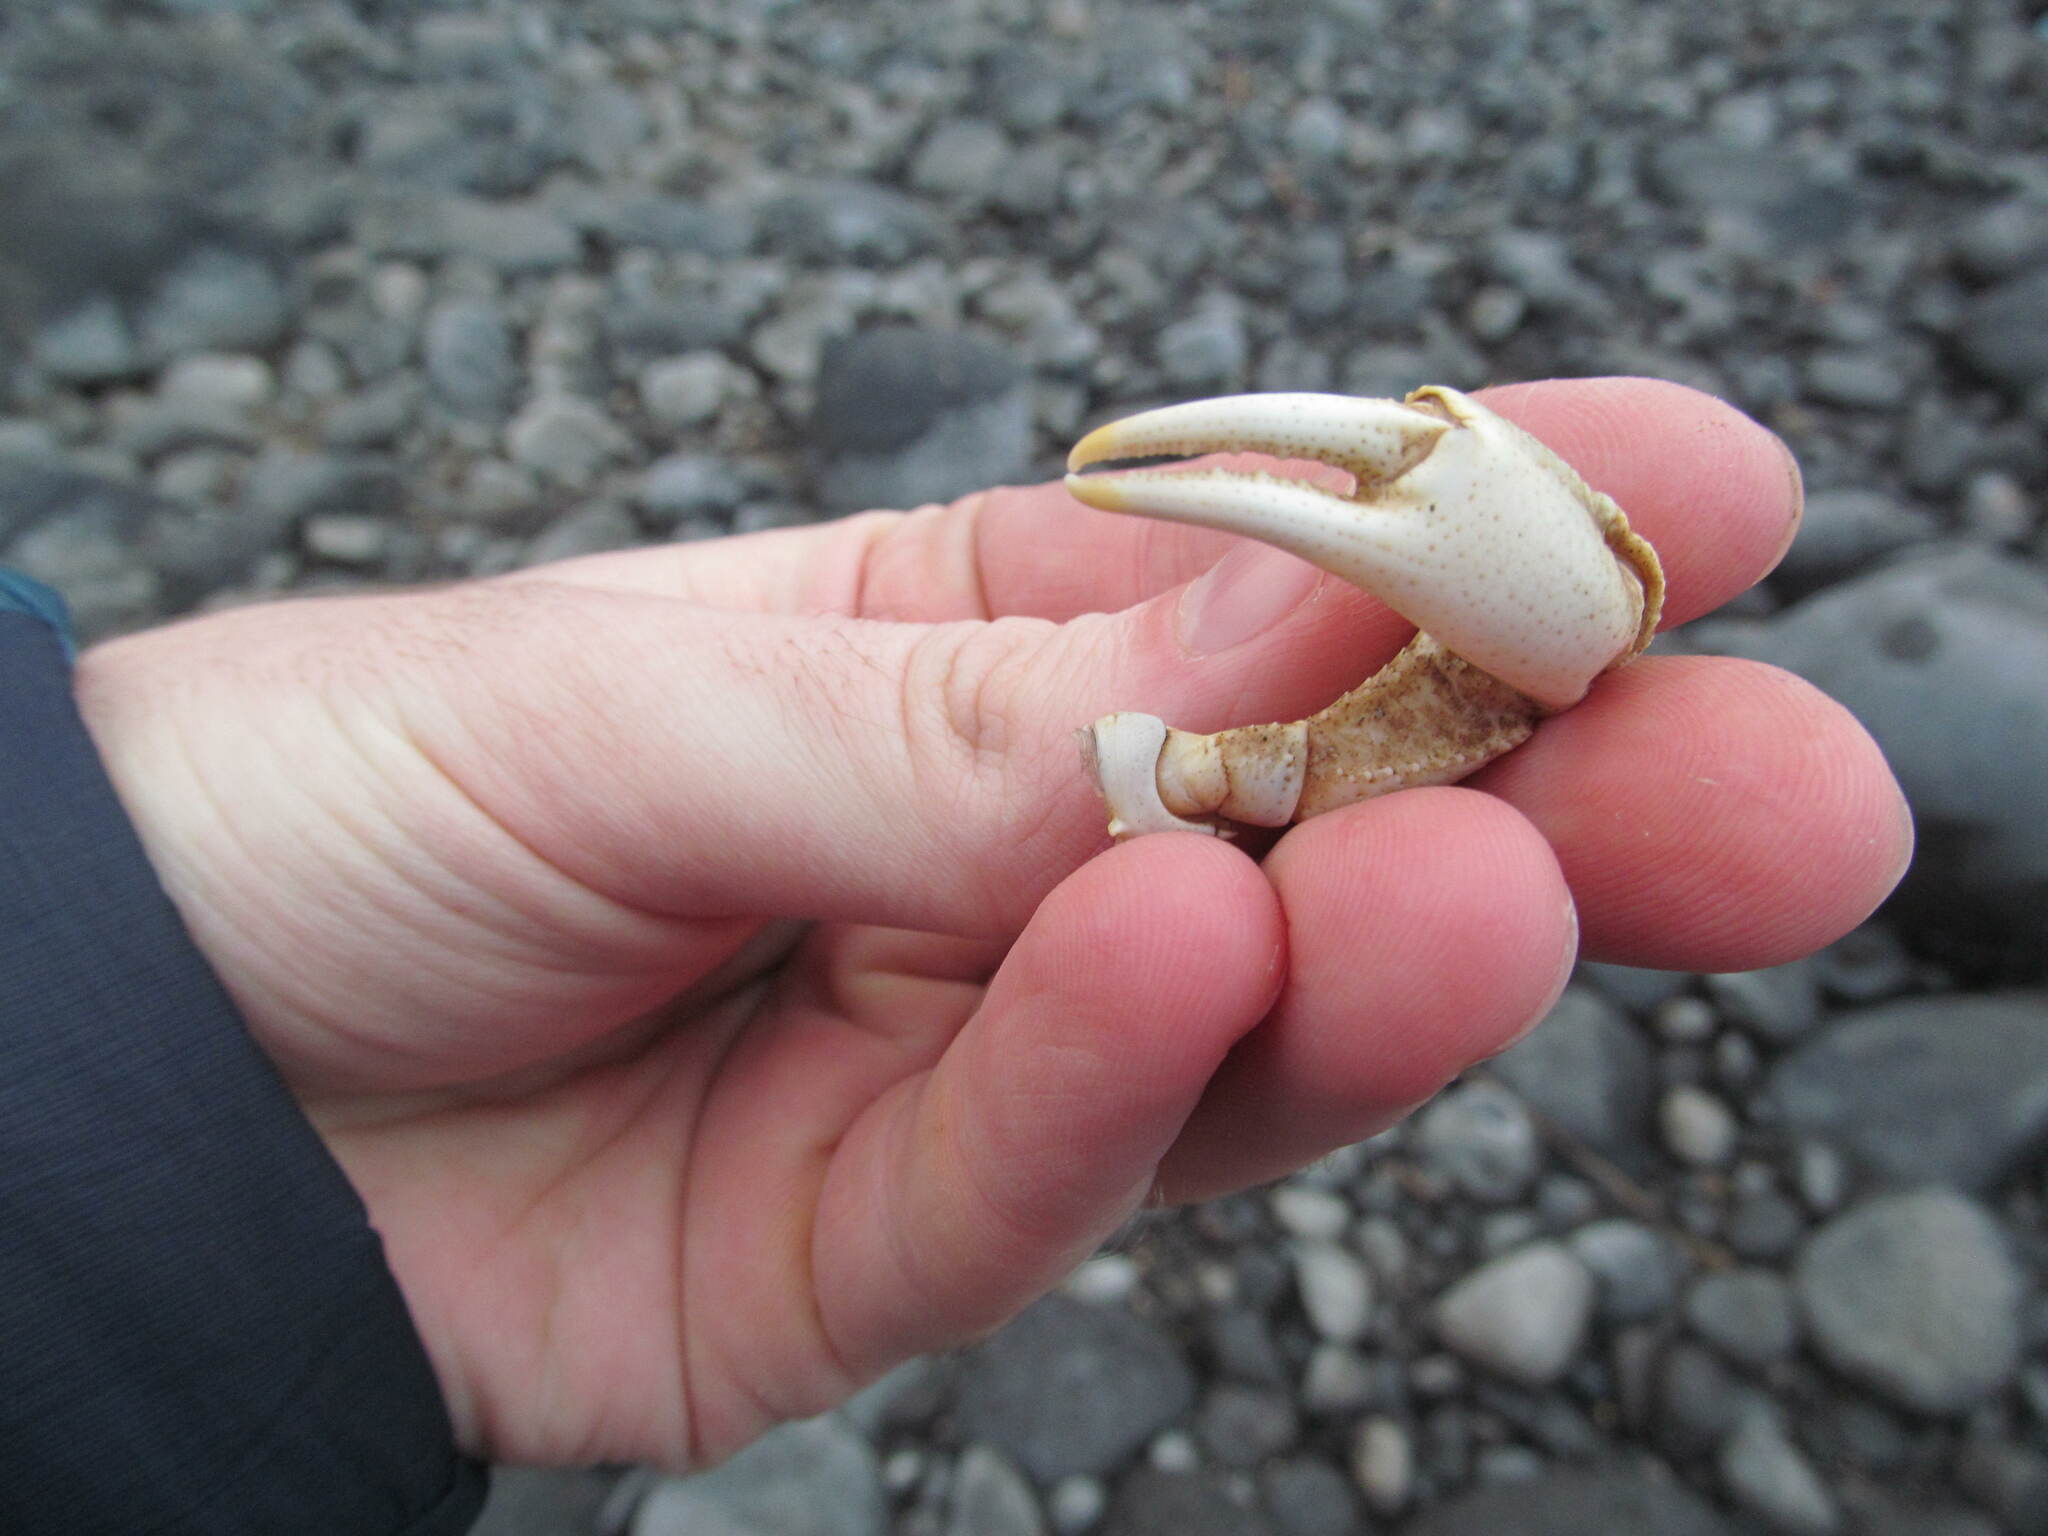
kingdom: Animalia
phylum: Arthropoda
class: Malacostraca
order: Decapoda
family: Potamidae
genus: Potamon
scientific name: Potamon potamios
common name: Aegean freshwater crab
